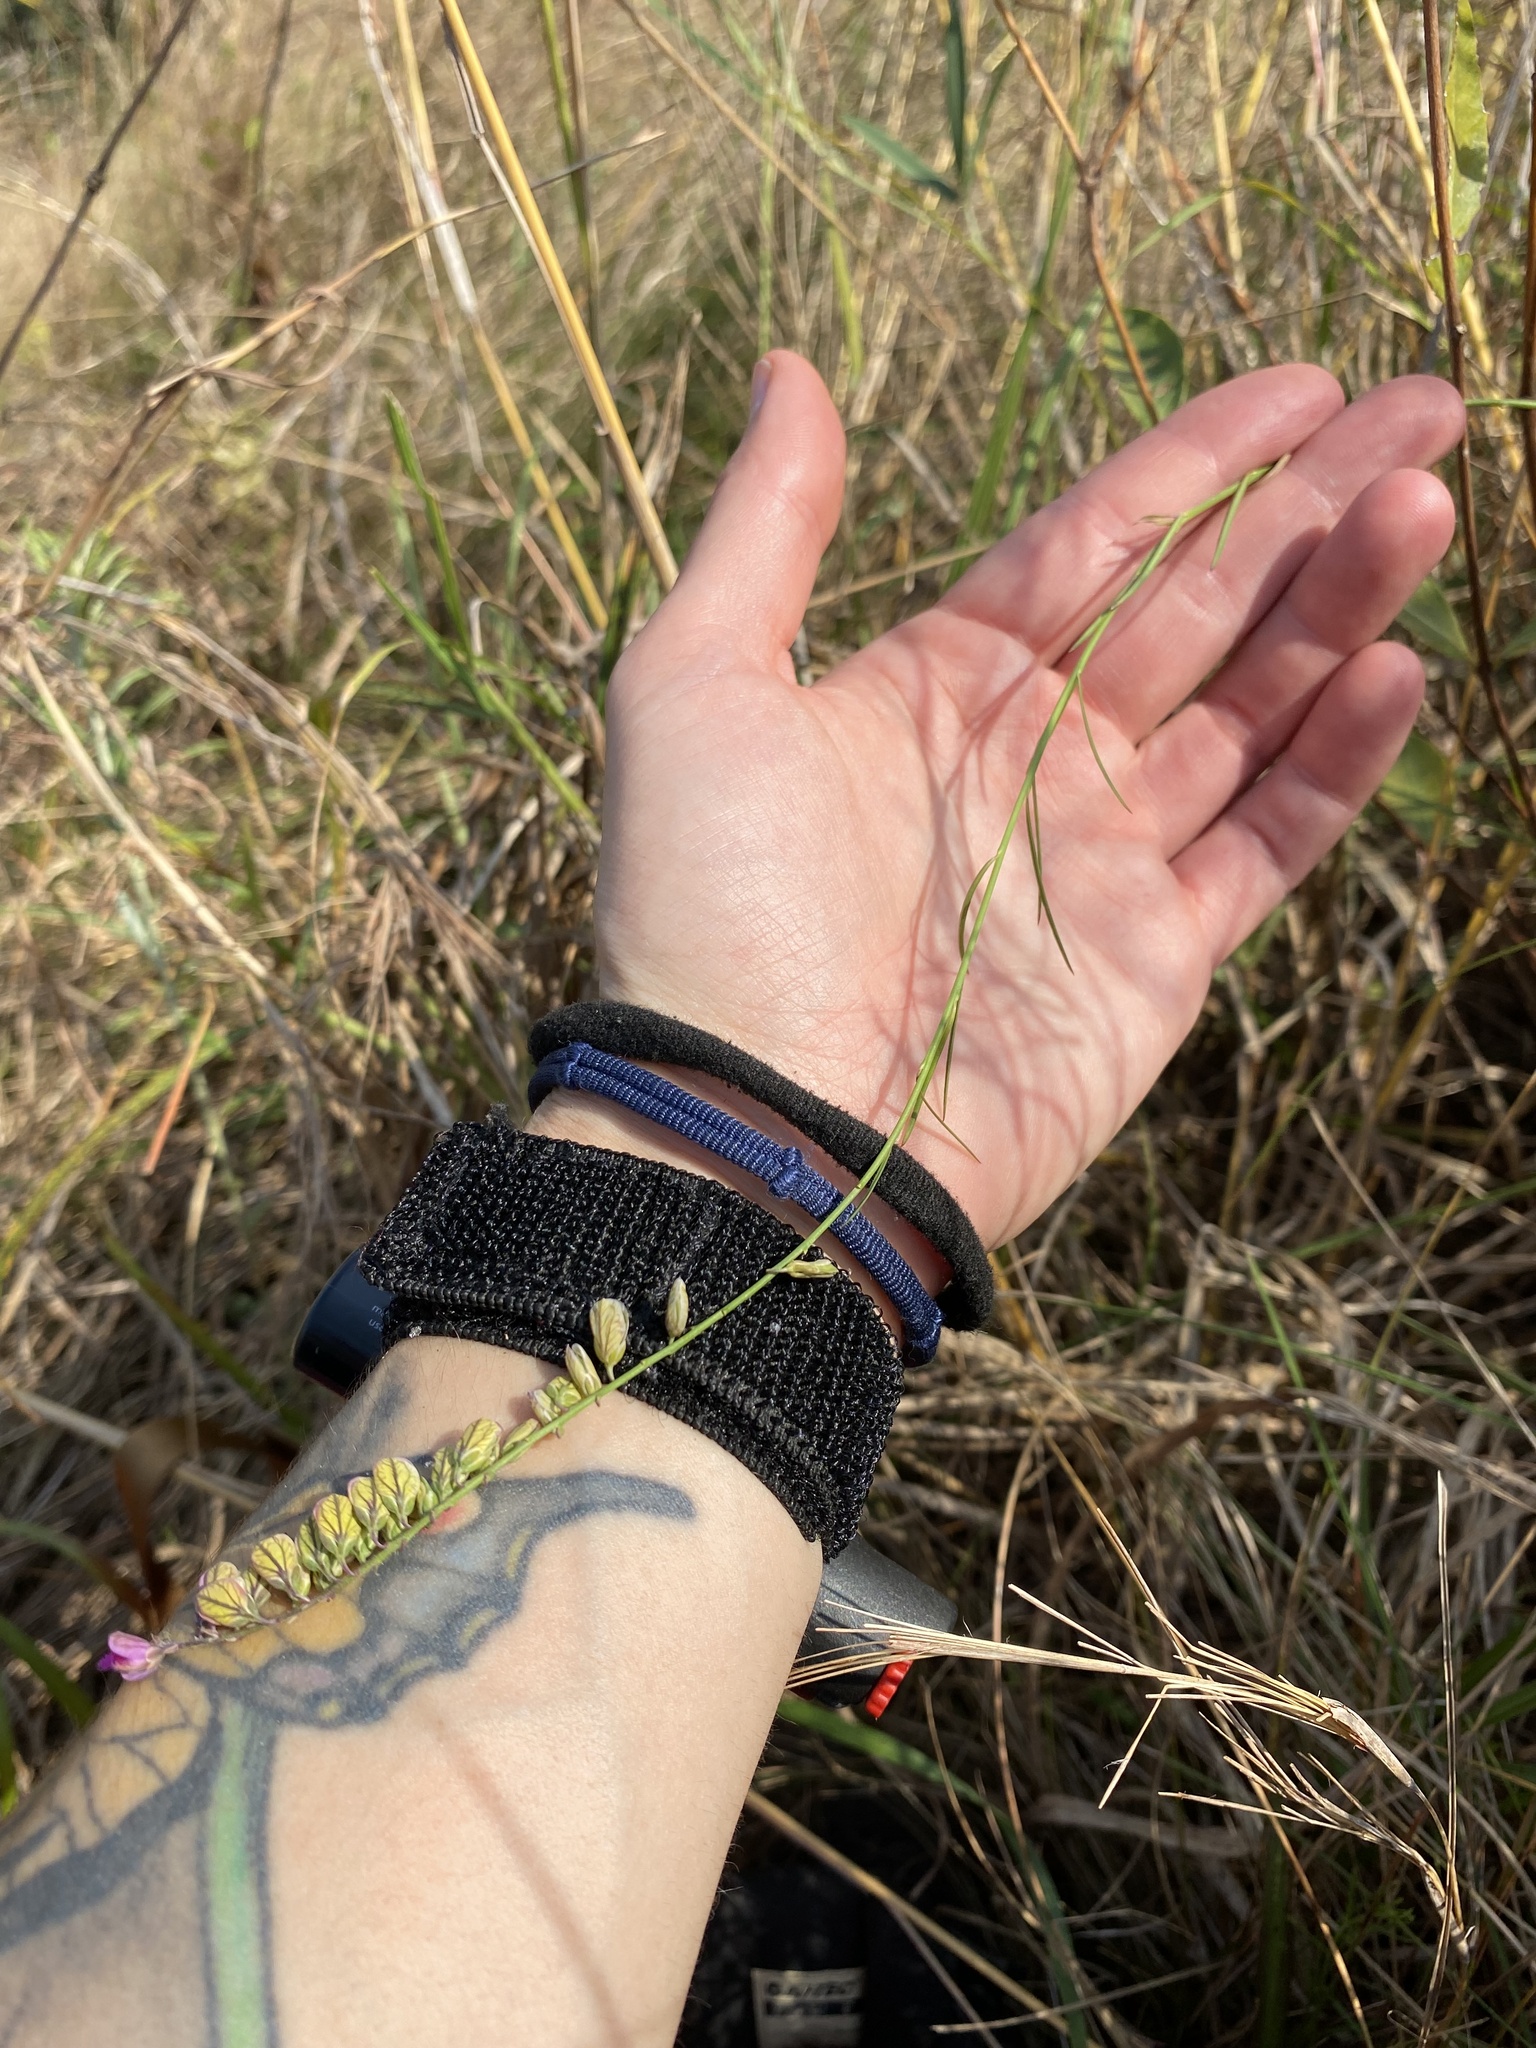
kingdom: Plantae
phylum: Tracheophyta
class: Magnoliopsida
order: Fabales
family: Polygalaceae
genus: Polygala
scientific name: Polygala hottentotta
